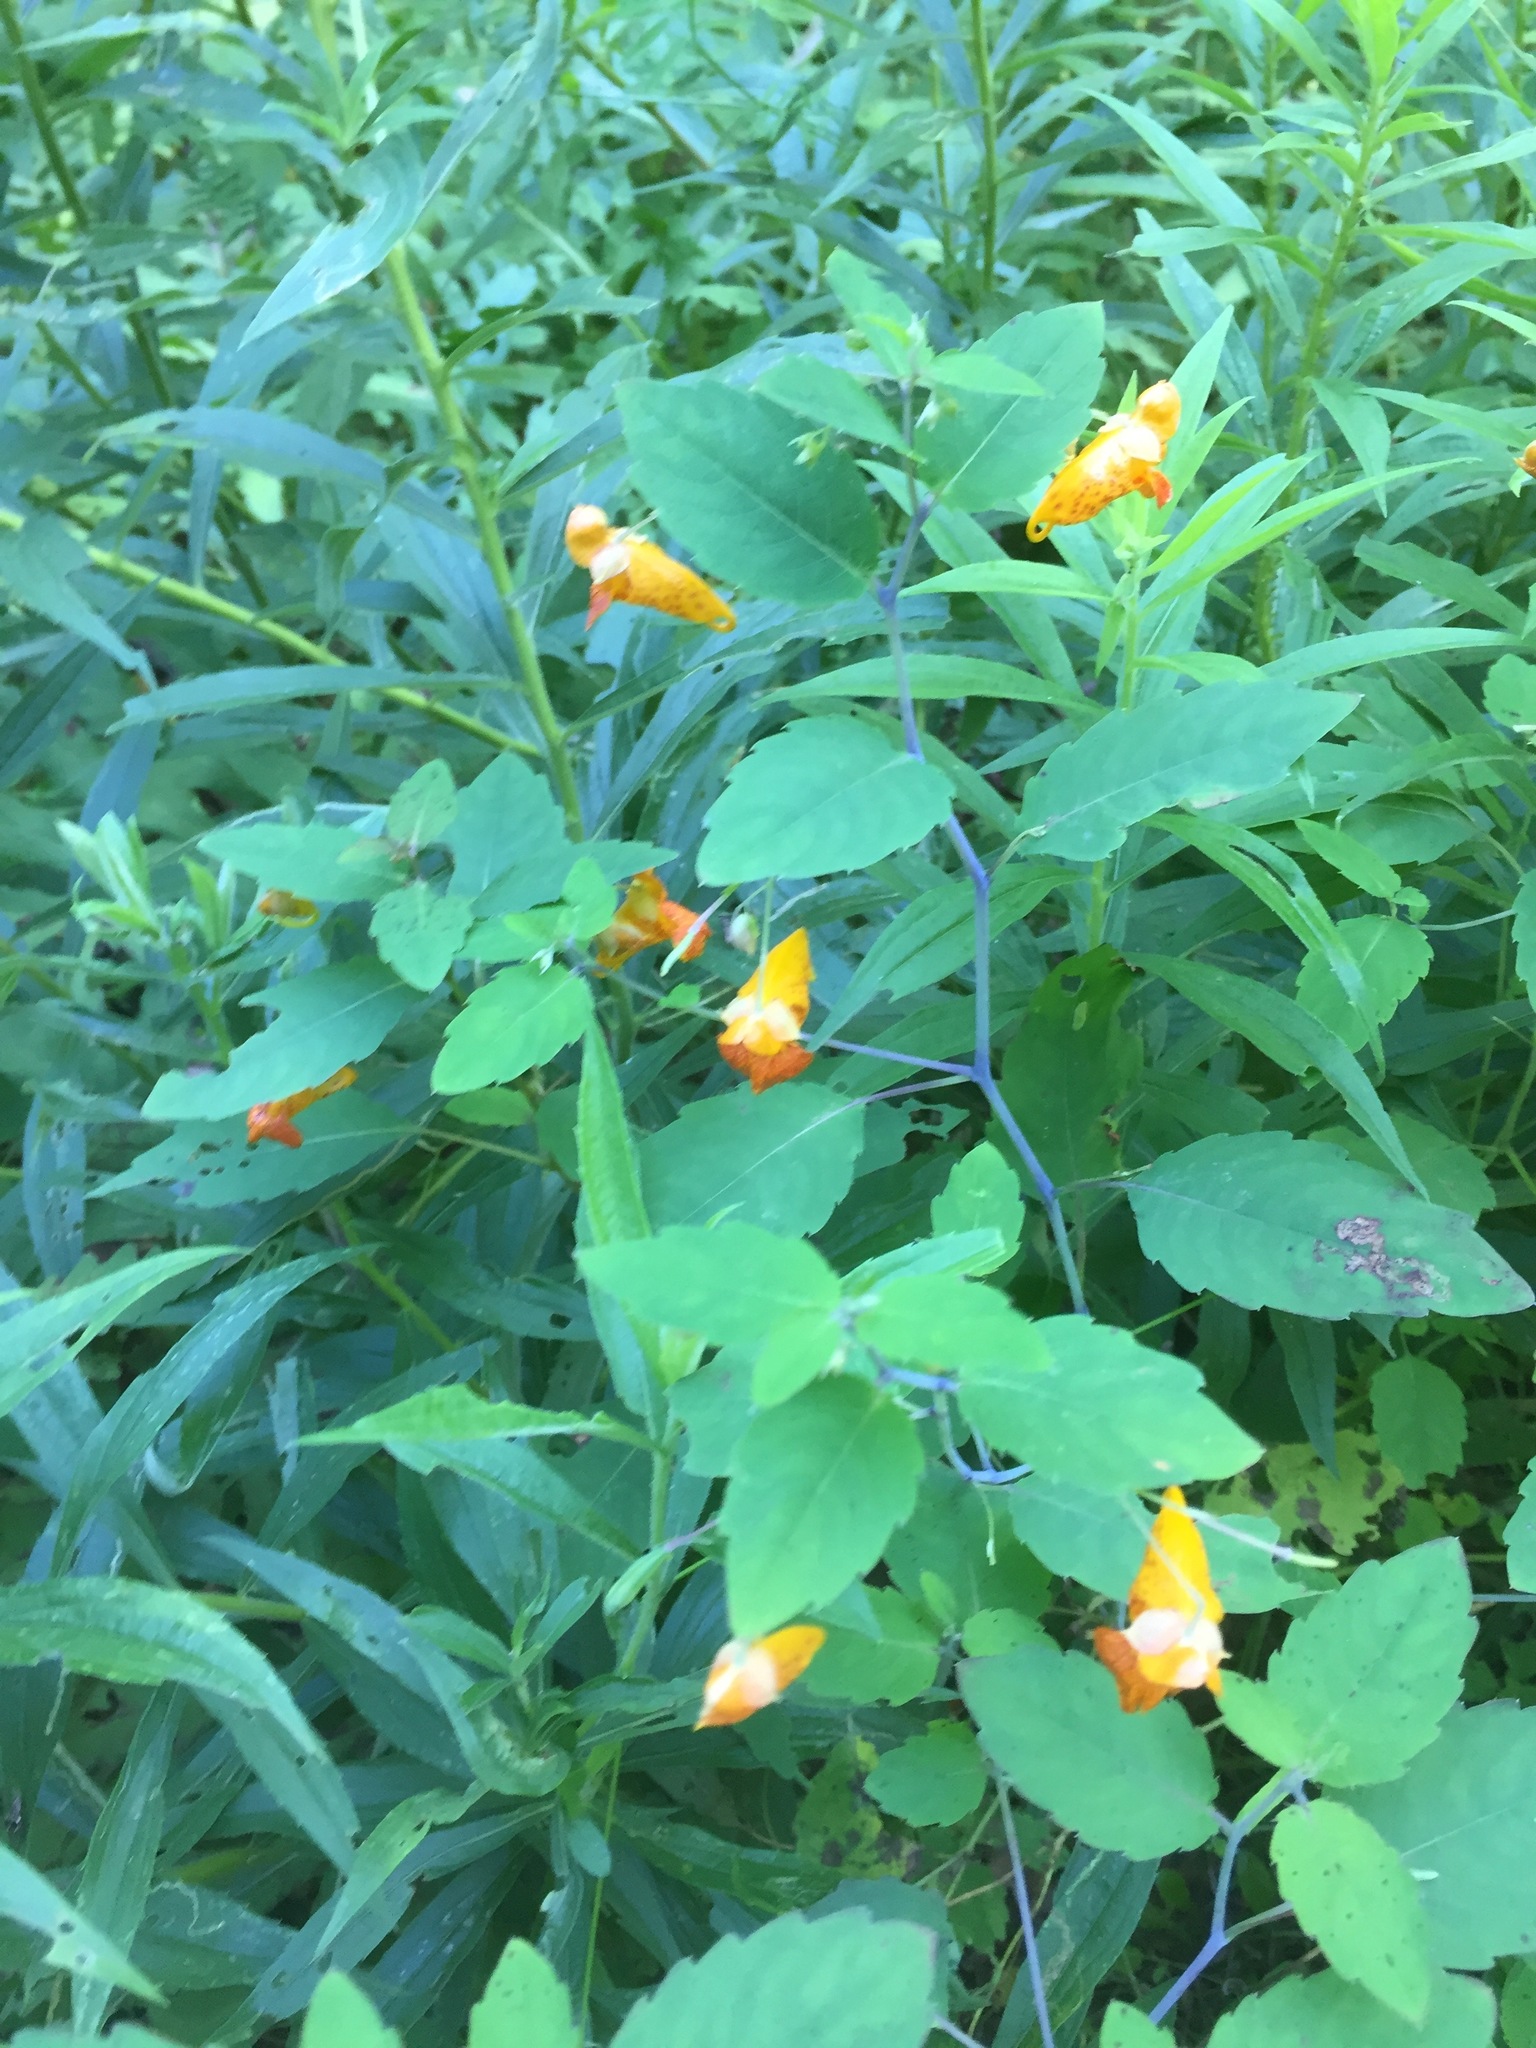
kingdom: Plantae
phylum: Tracheophyta
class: Magnoliopsida
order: Ericales
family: Balsaminaceae
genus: Impatiens
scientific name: Impatiens capensis
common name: Orange balsam
